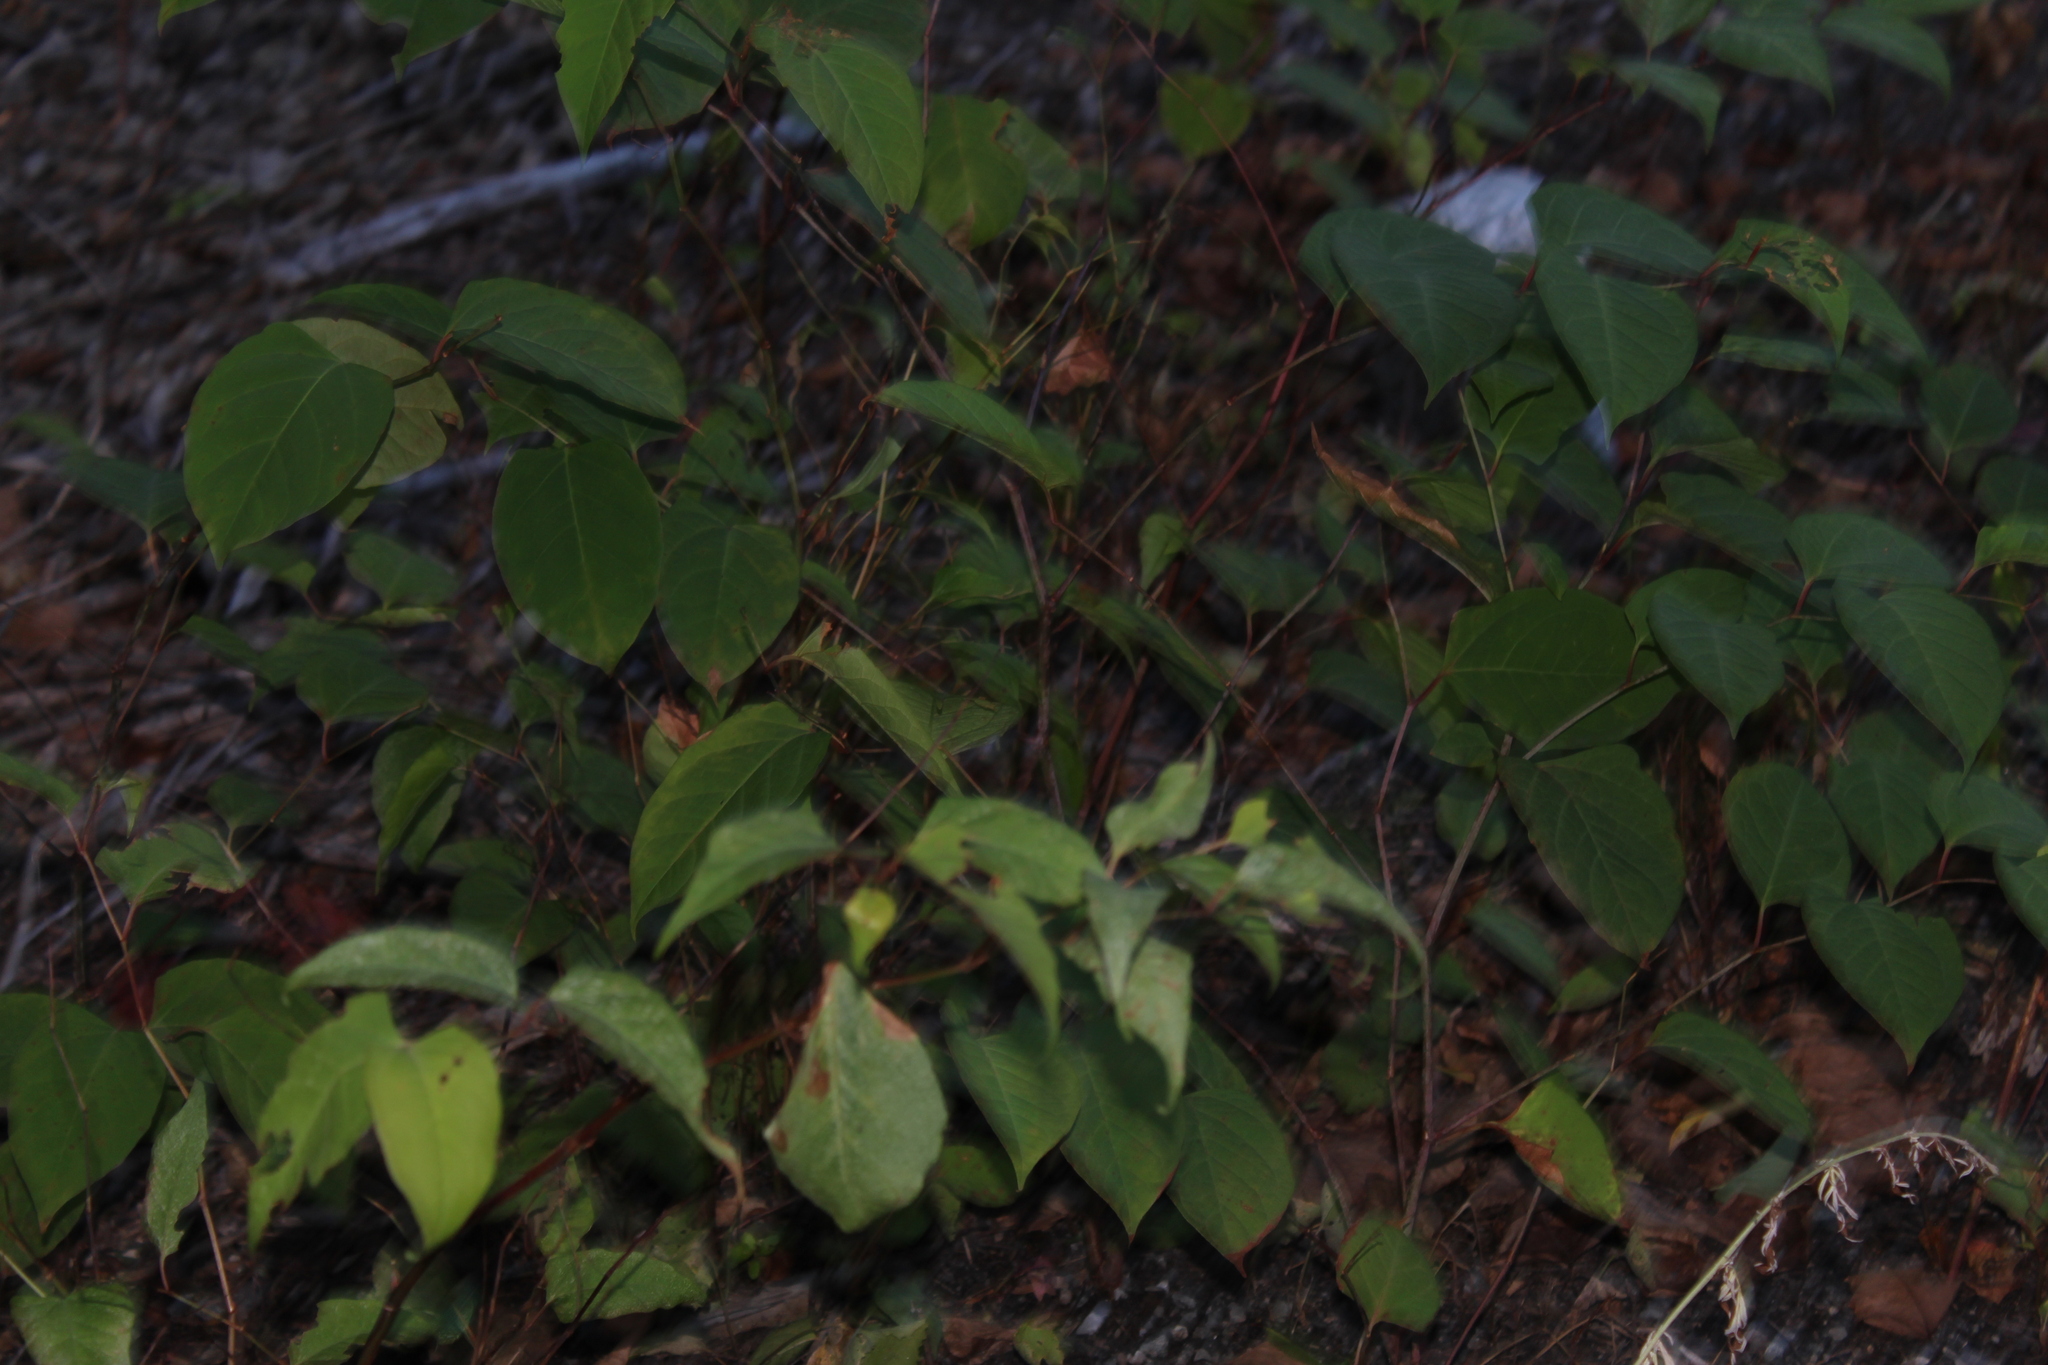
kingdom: Plantae
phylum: Tracheophyta
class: Magnoliopsida
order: Caryophyllales
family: Polygonaceae
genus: Reynoutria
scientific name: Reynoutria japonica
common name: Japanese knotweed
